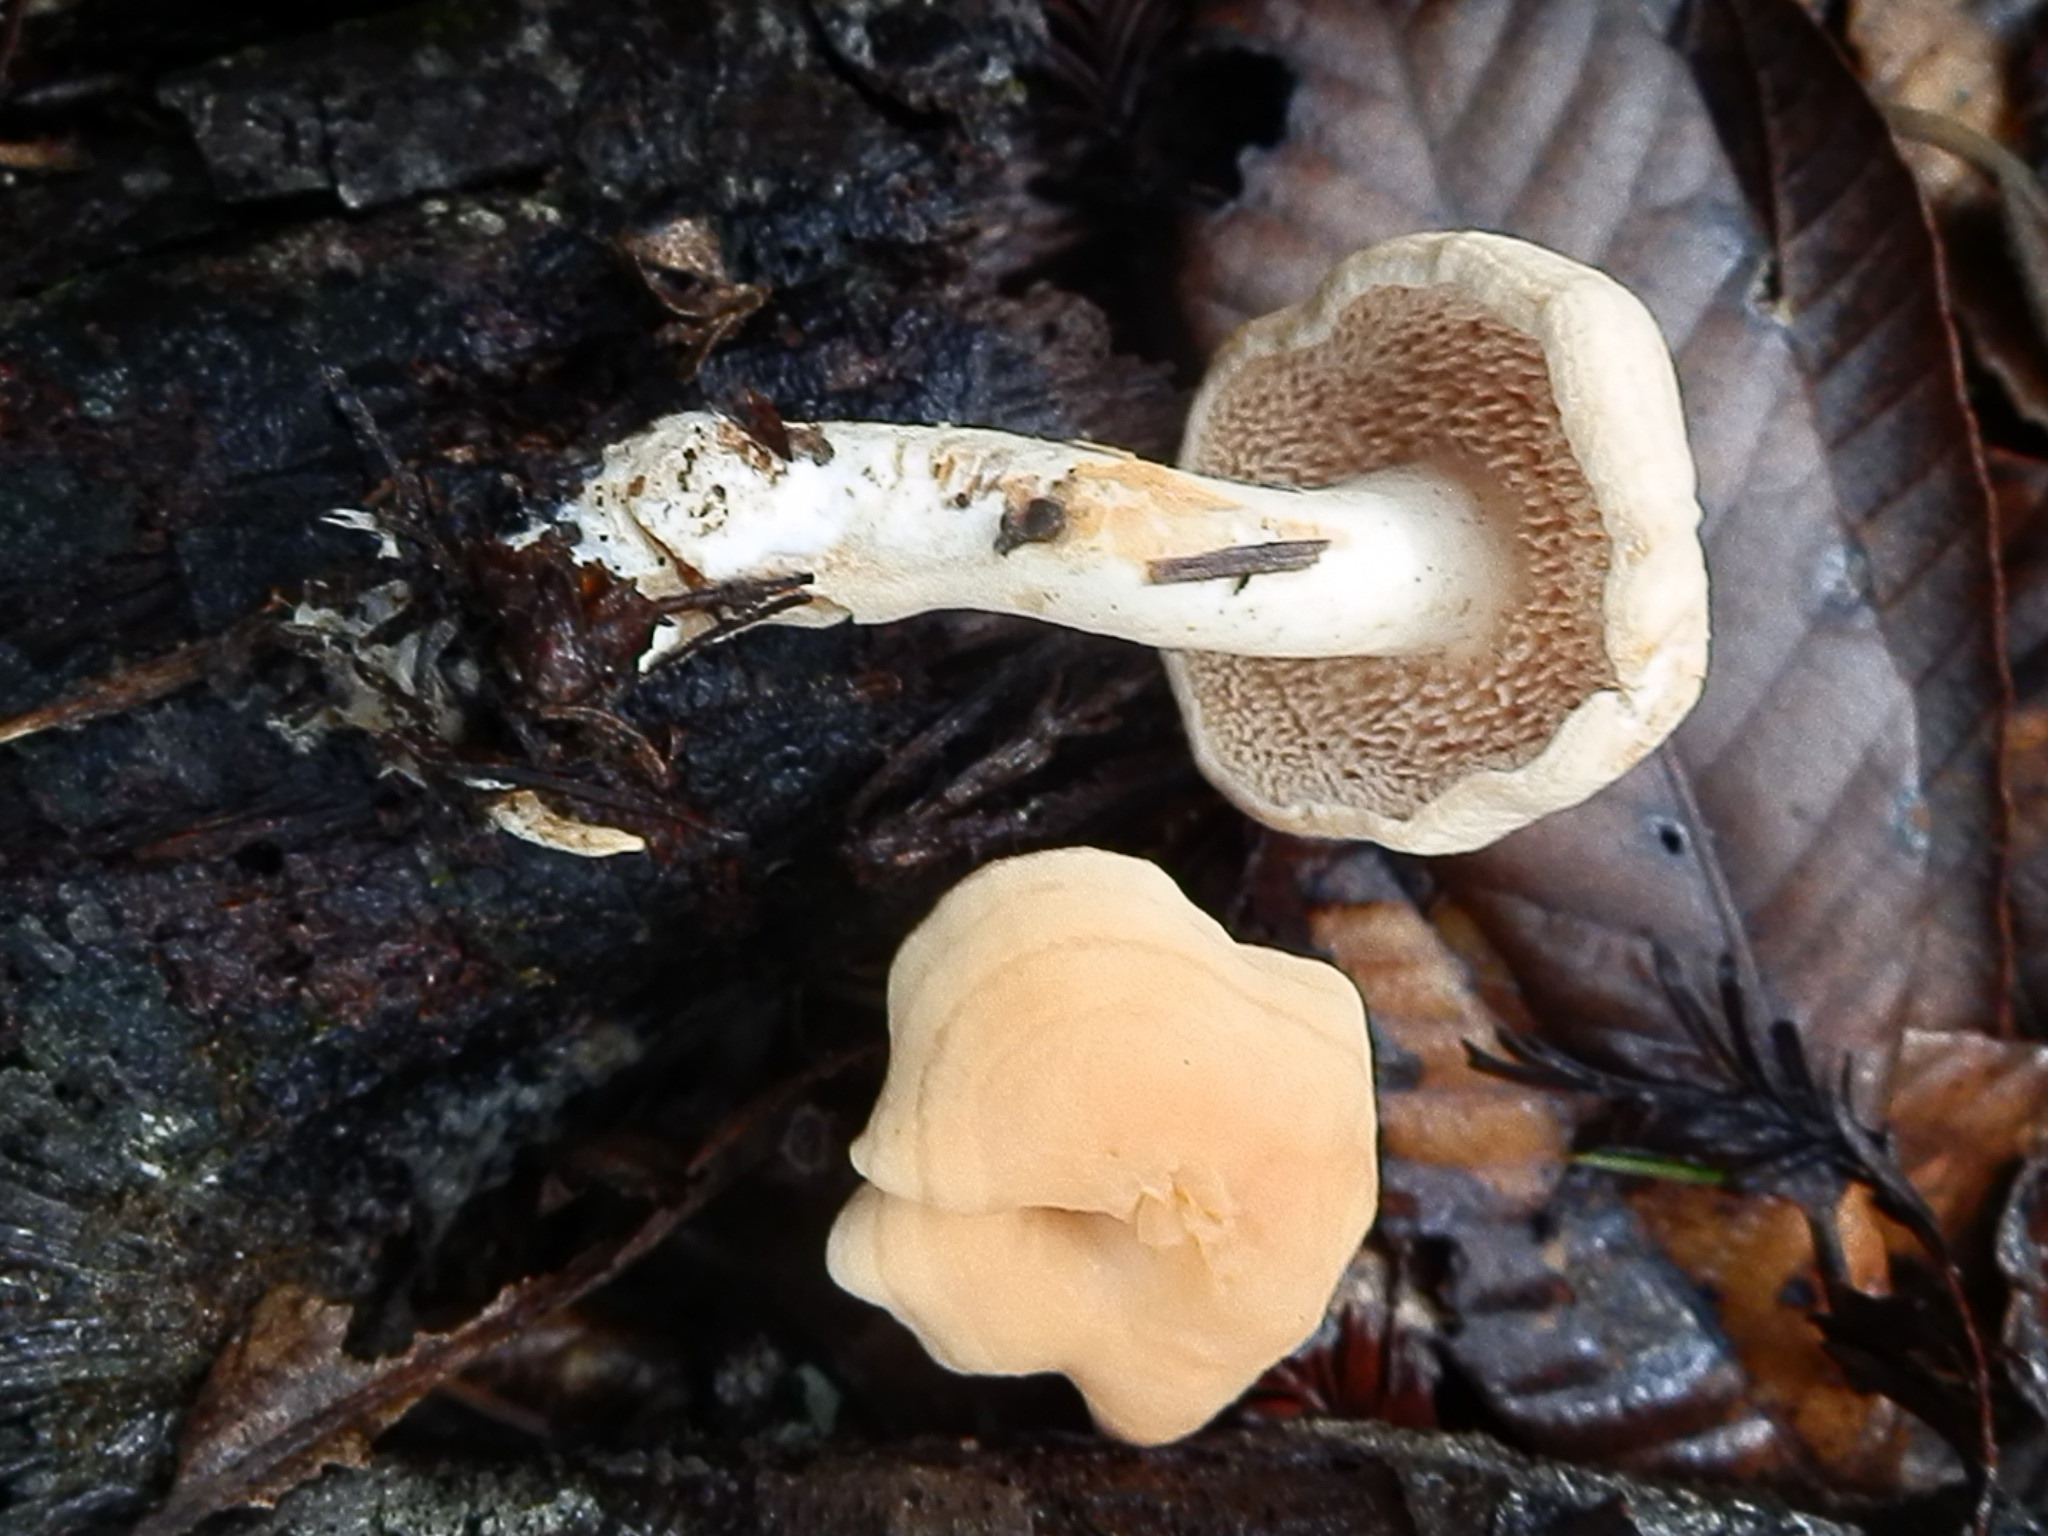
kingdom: Fungi
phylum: Basidiomycota
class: Agaricomycetes
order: Cantharellales
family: Hydnaceae
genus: Hydnum
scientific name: Hydnum oregonense
